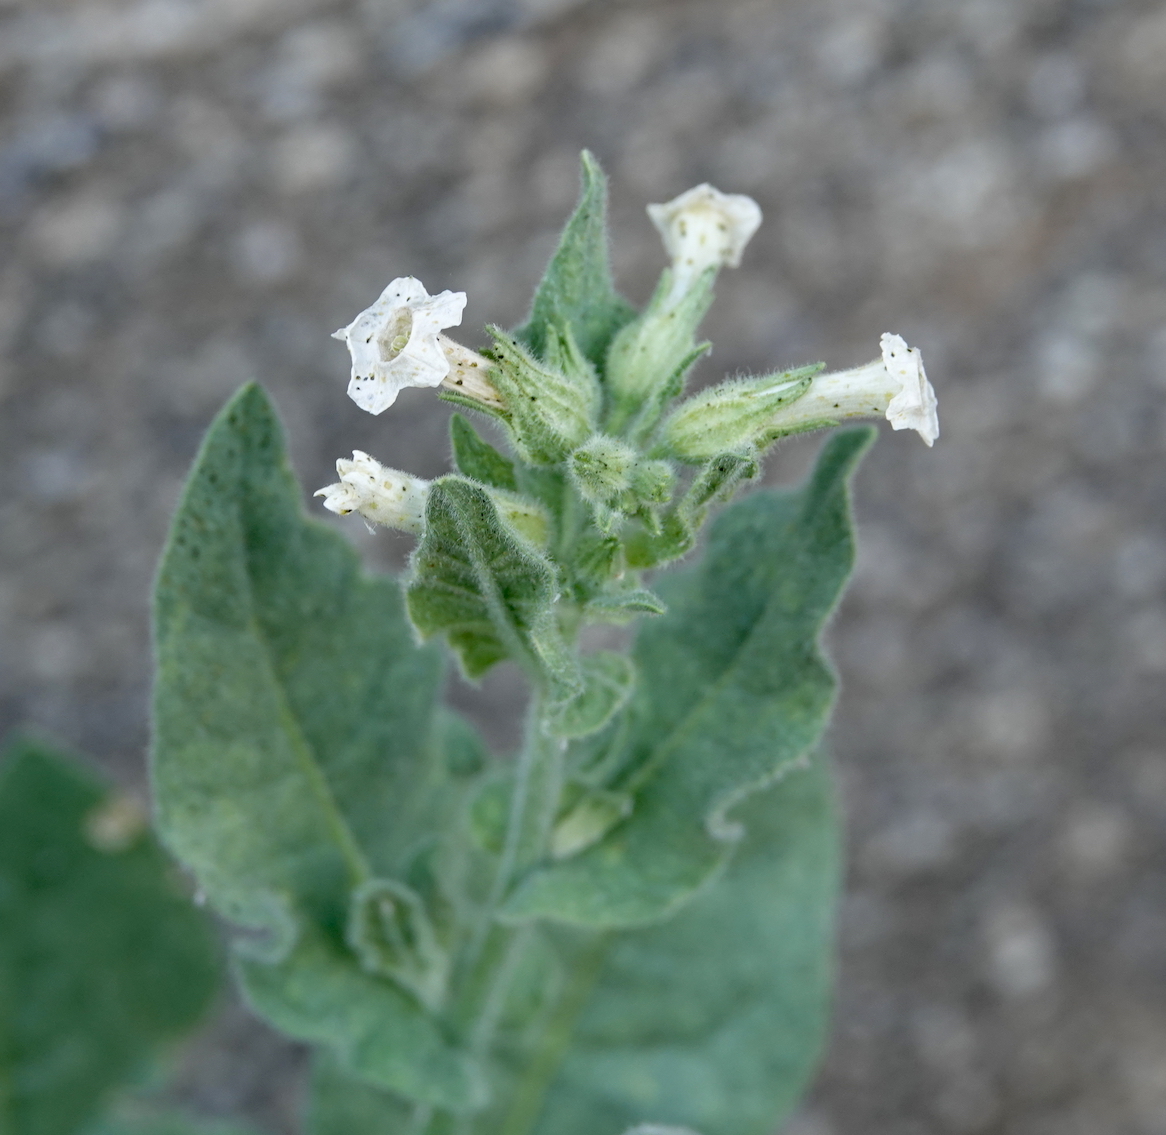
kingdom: Plantae
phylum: Tracheophyta
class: Magnoliopsida
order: Solanales
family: Solanaceae
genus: Nicotiana
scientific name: Nicotiana obtusifolia
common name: Desert tobacco
